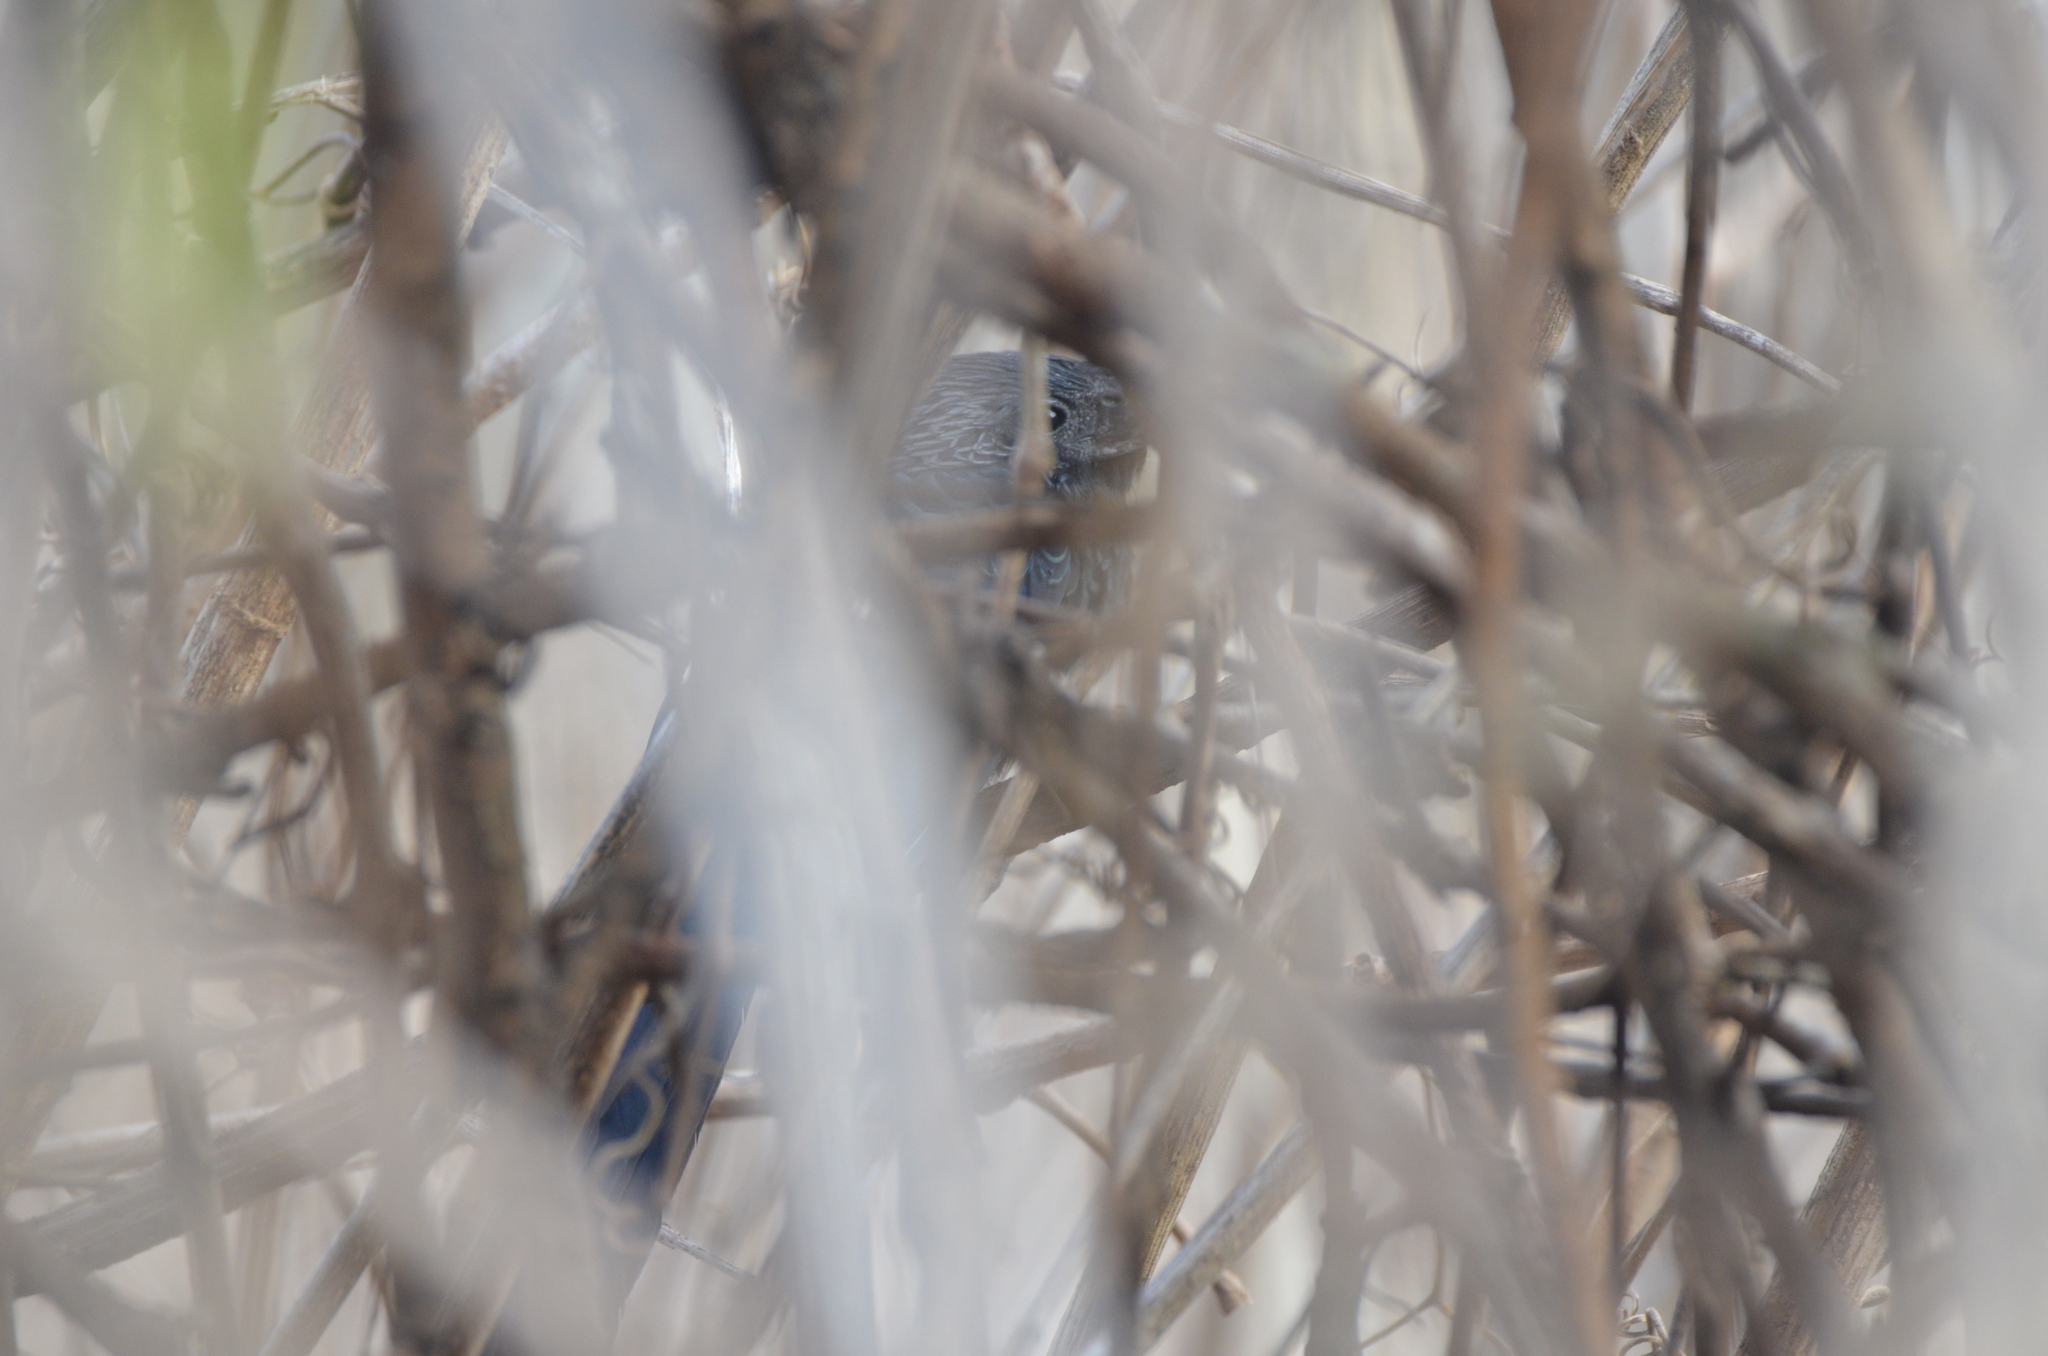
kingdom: Animalia
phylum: Chordata
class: Aves
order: Cuculiformes
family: Cuculidae
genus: Crotophaga
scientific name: Crotophaga sulcirostris
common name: Groove-billed ani
